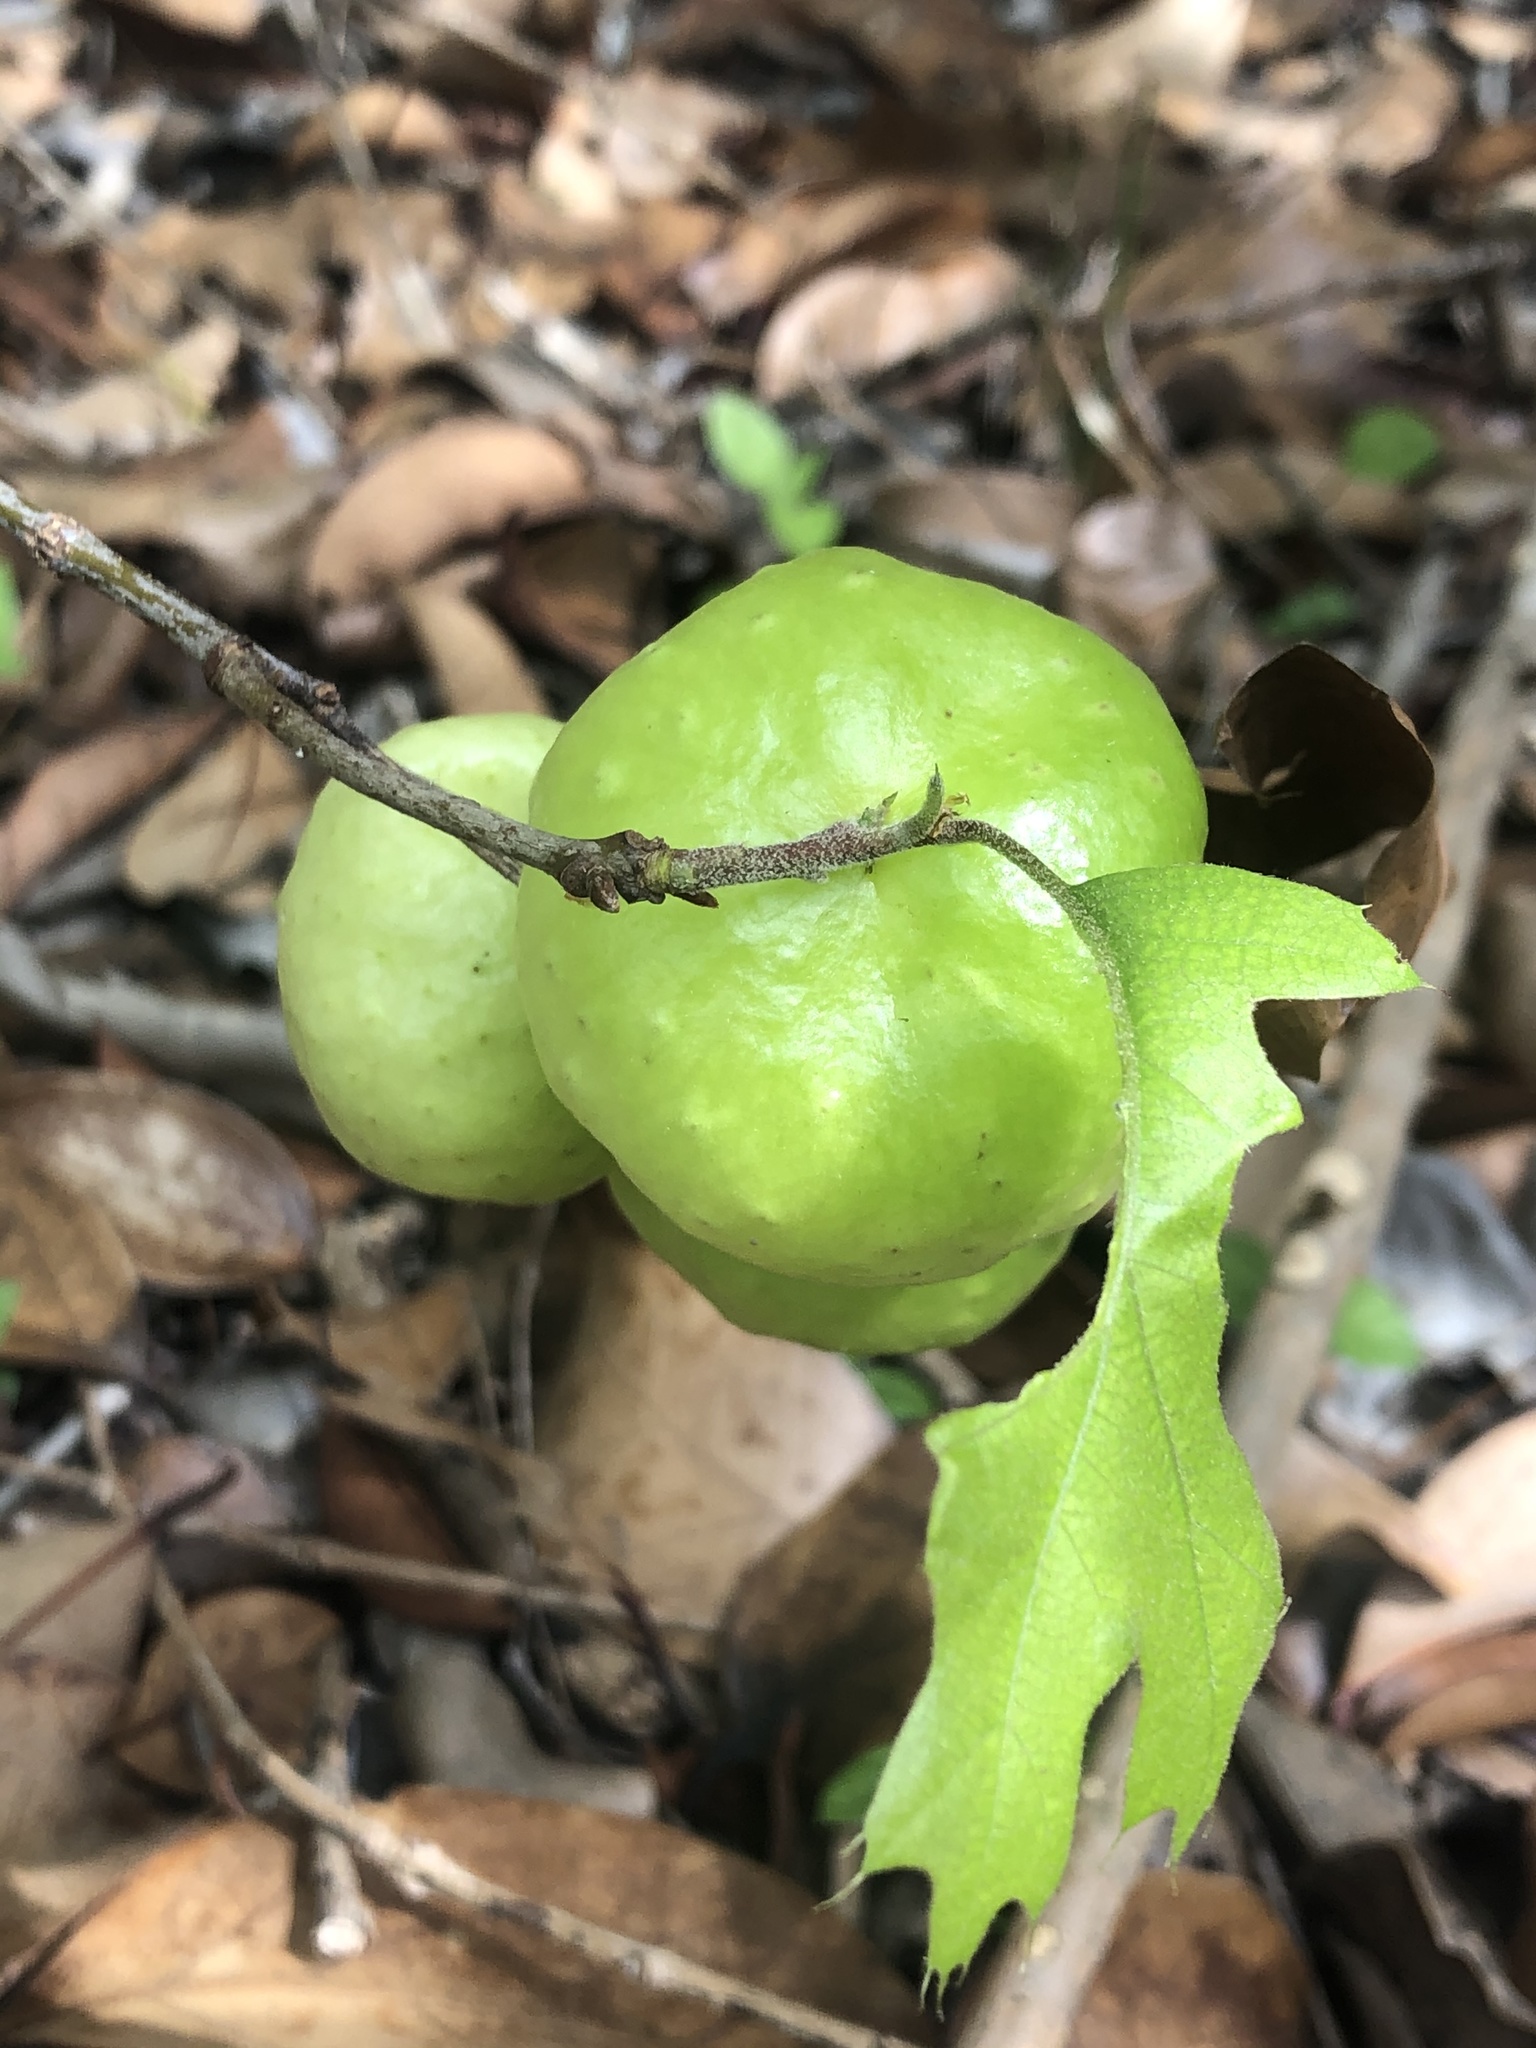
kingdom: Animalia
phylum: Arthropoda
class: Insecta
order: Hymenoptera
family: Cynipidae
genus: Amphibolips
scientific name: Amphibolips
